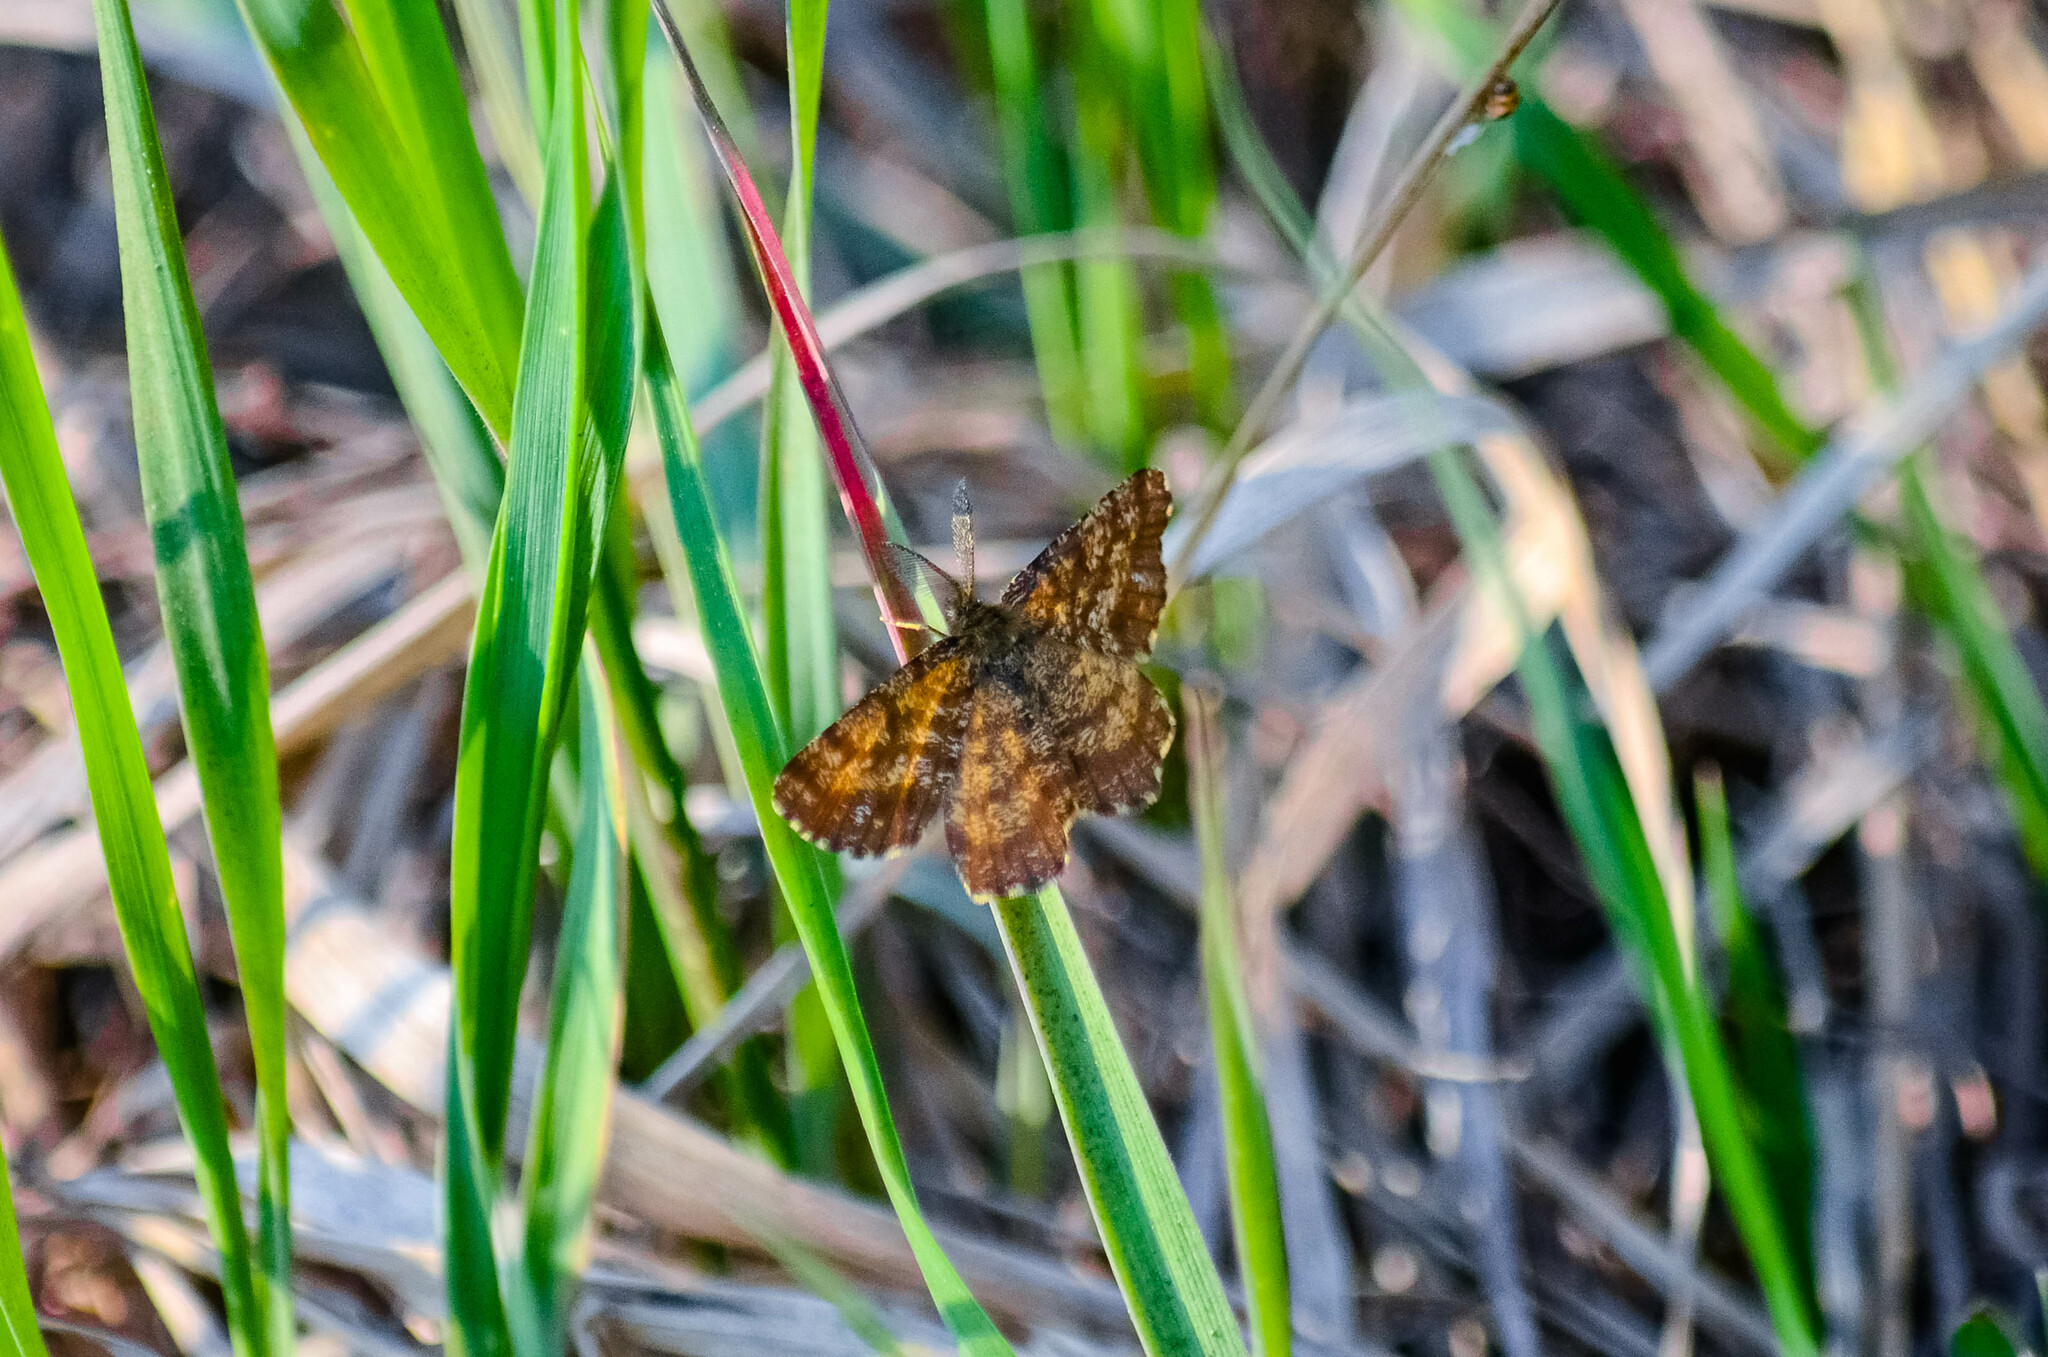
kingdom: Animalia
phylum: Arthropoda
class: Insecta
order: Lepidoptera
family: Geometridae
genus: Ematurga
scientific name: Ematurga atomaria
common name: Common heath
